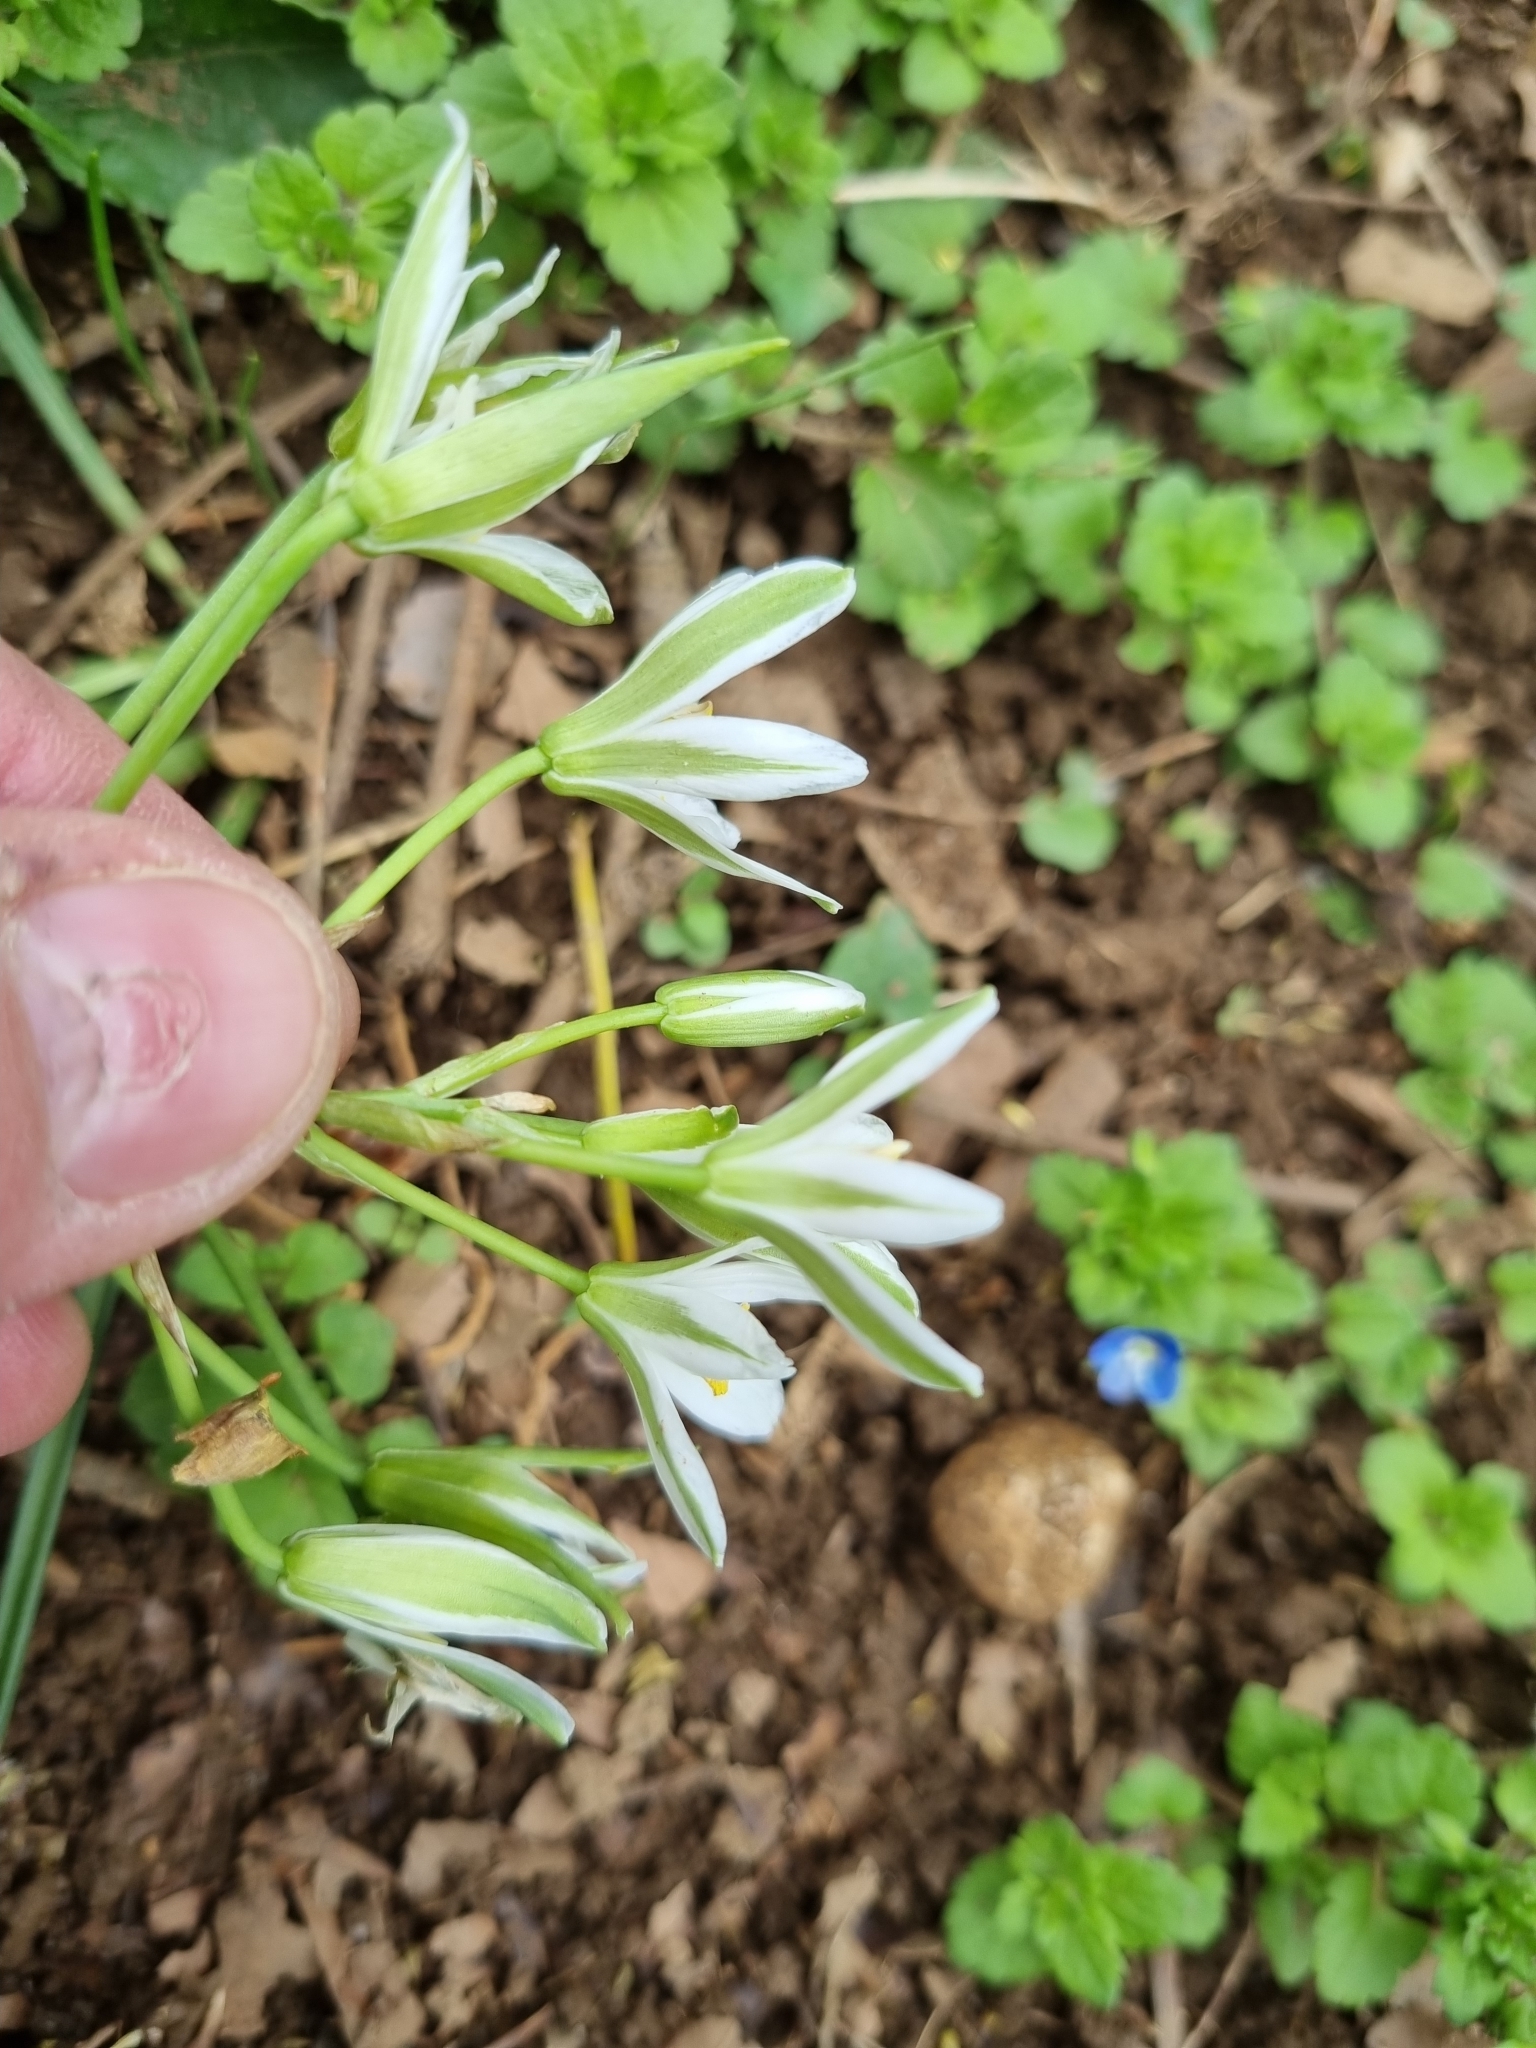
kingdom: Plantae
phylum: Tracheophyta
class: Liliopsida
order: Asparagales
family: Asparagaceae
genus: Ornithogalum
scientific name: Ornithogalum umbellatum
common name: Garden star-of-bethlehem
